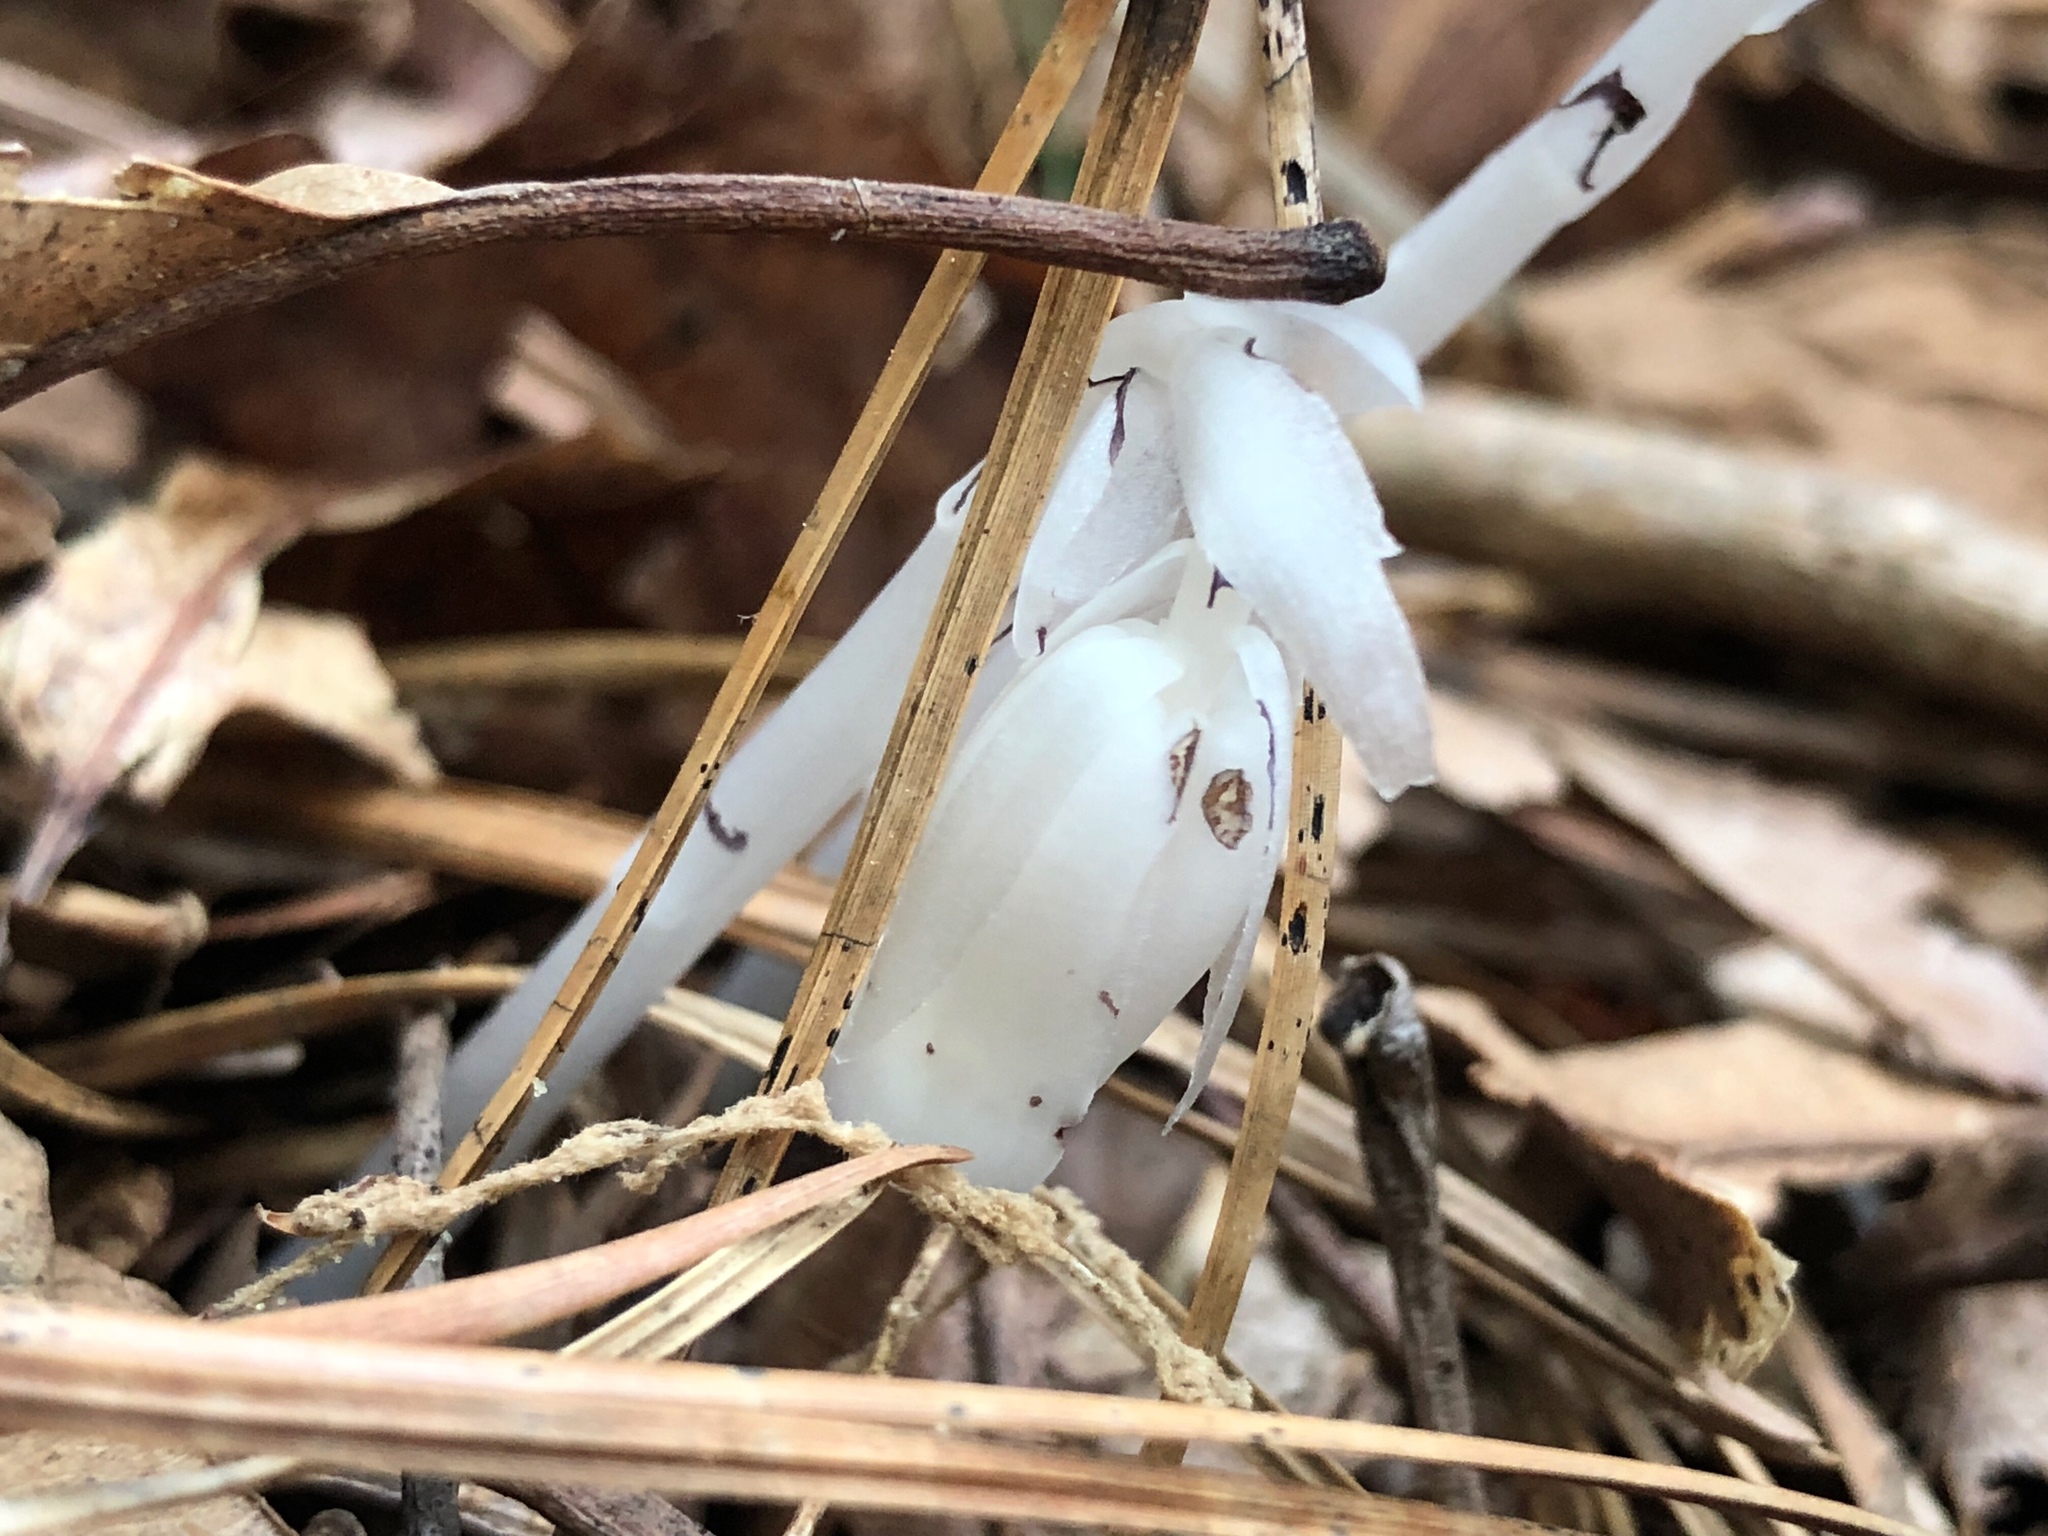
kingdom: Plantae
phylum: Tracheophyta
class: Magnoliopsida
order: Ericales
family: Ericaceae
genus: Monotropa
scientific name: Monotropa uniflora
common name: Convulsion root
